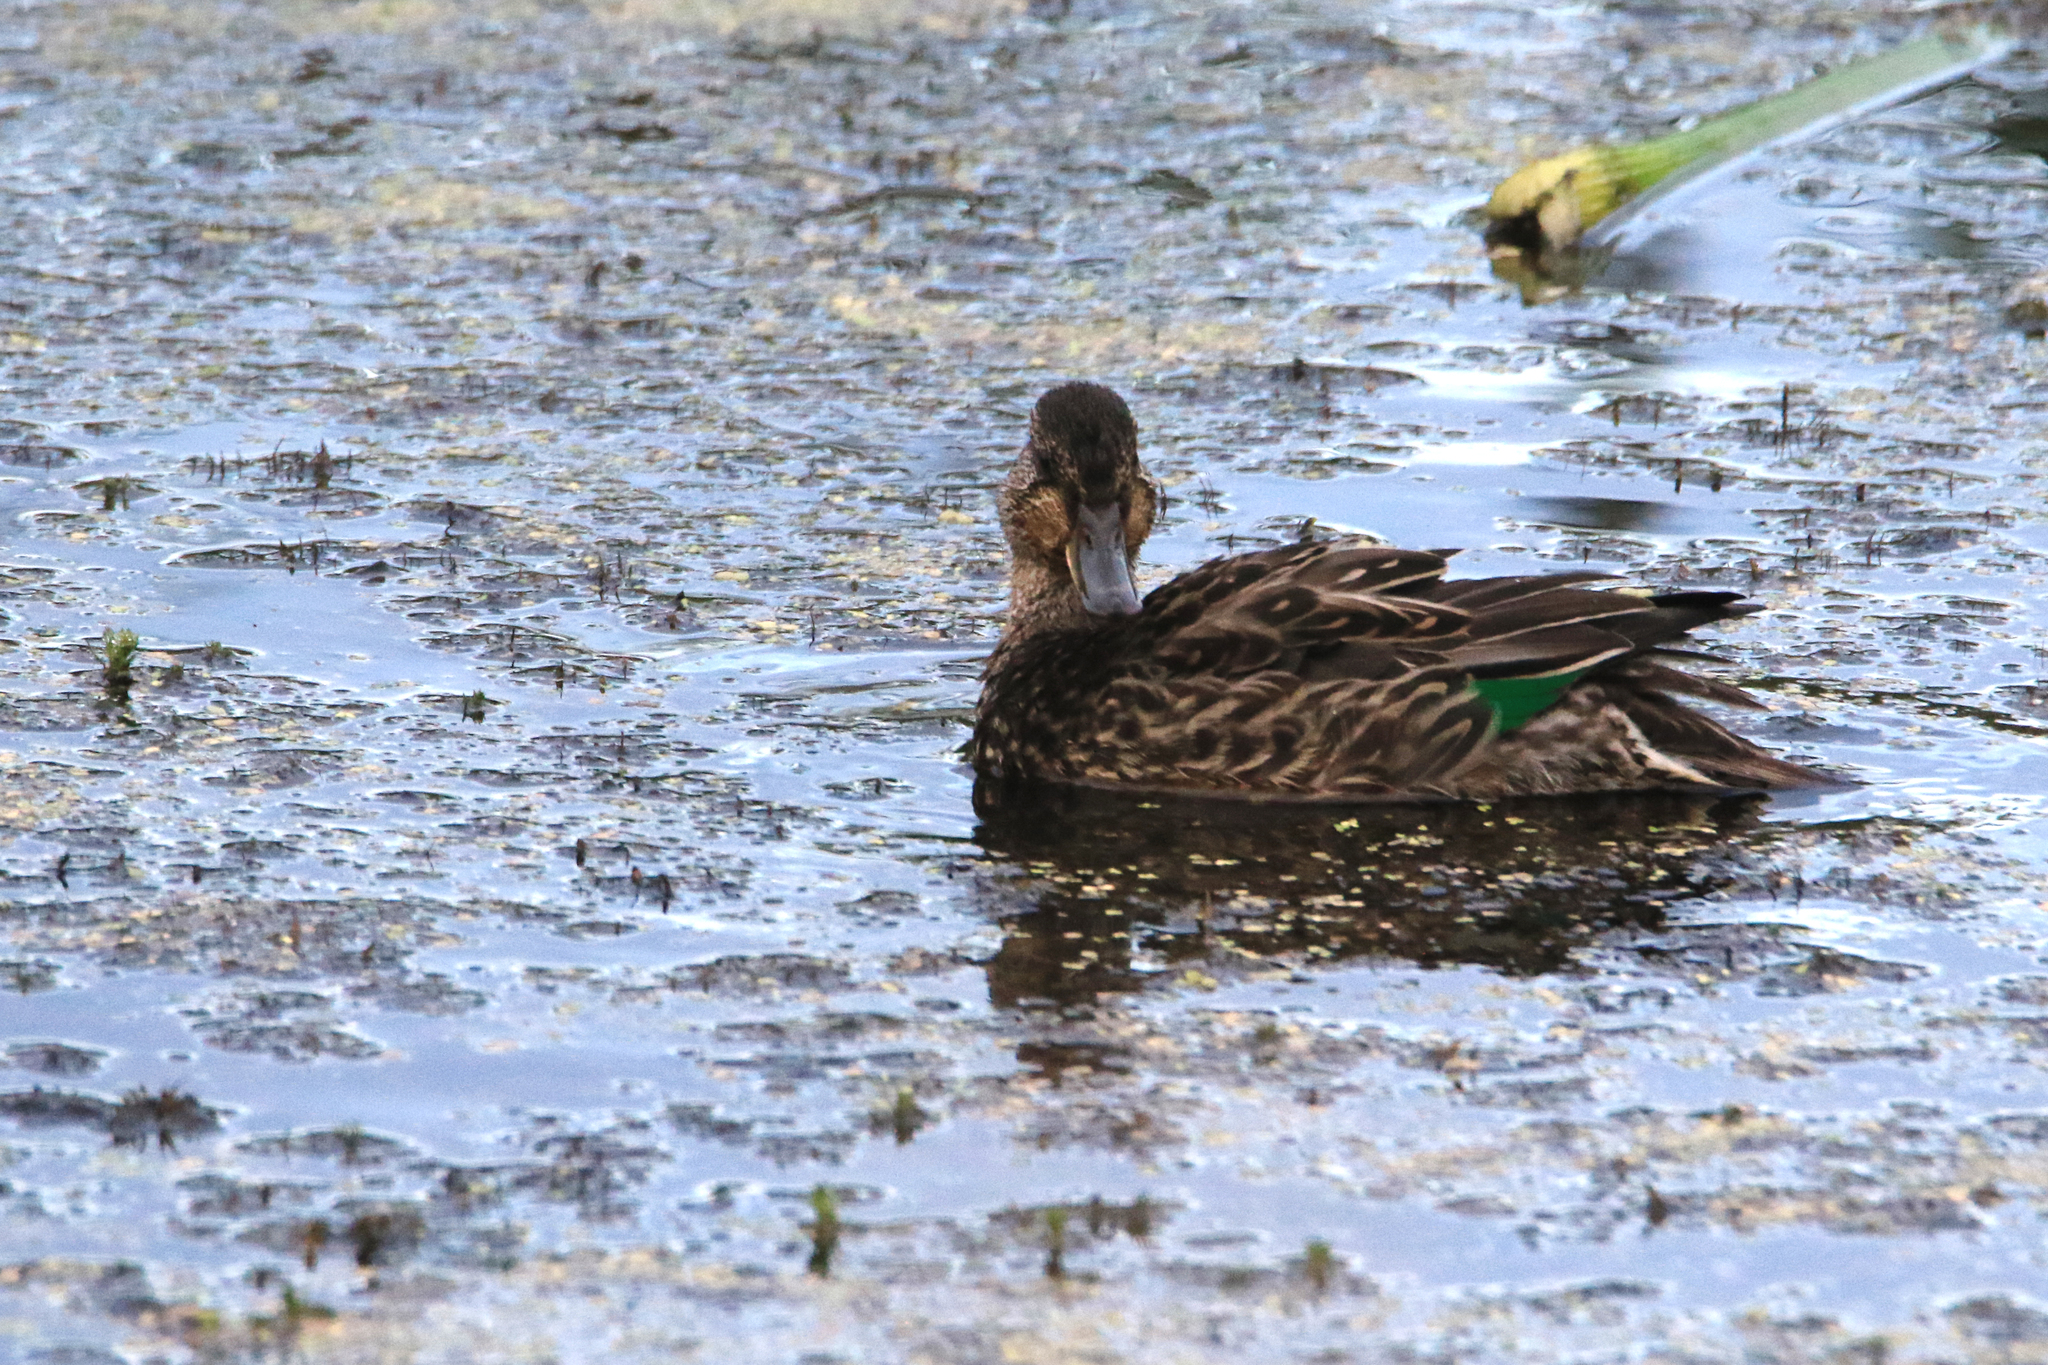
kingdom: Animalia
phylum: Chordata
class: Aves
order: Anseriformes
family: Anatidae
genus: Anas
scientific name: Anas crecca
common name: Eurasian teal
